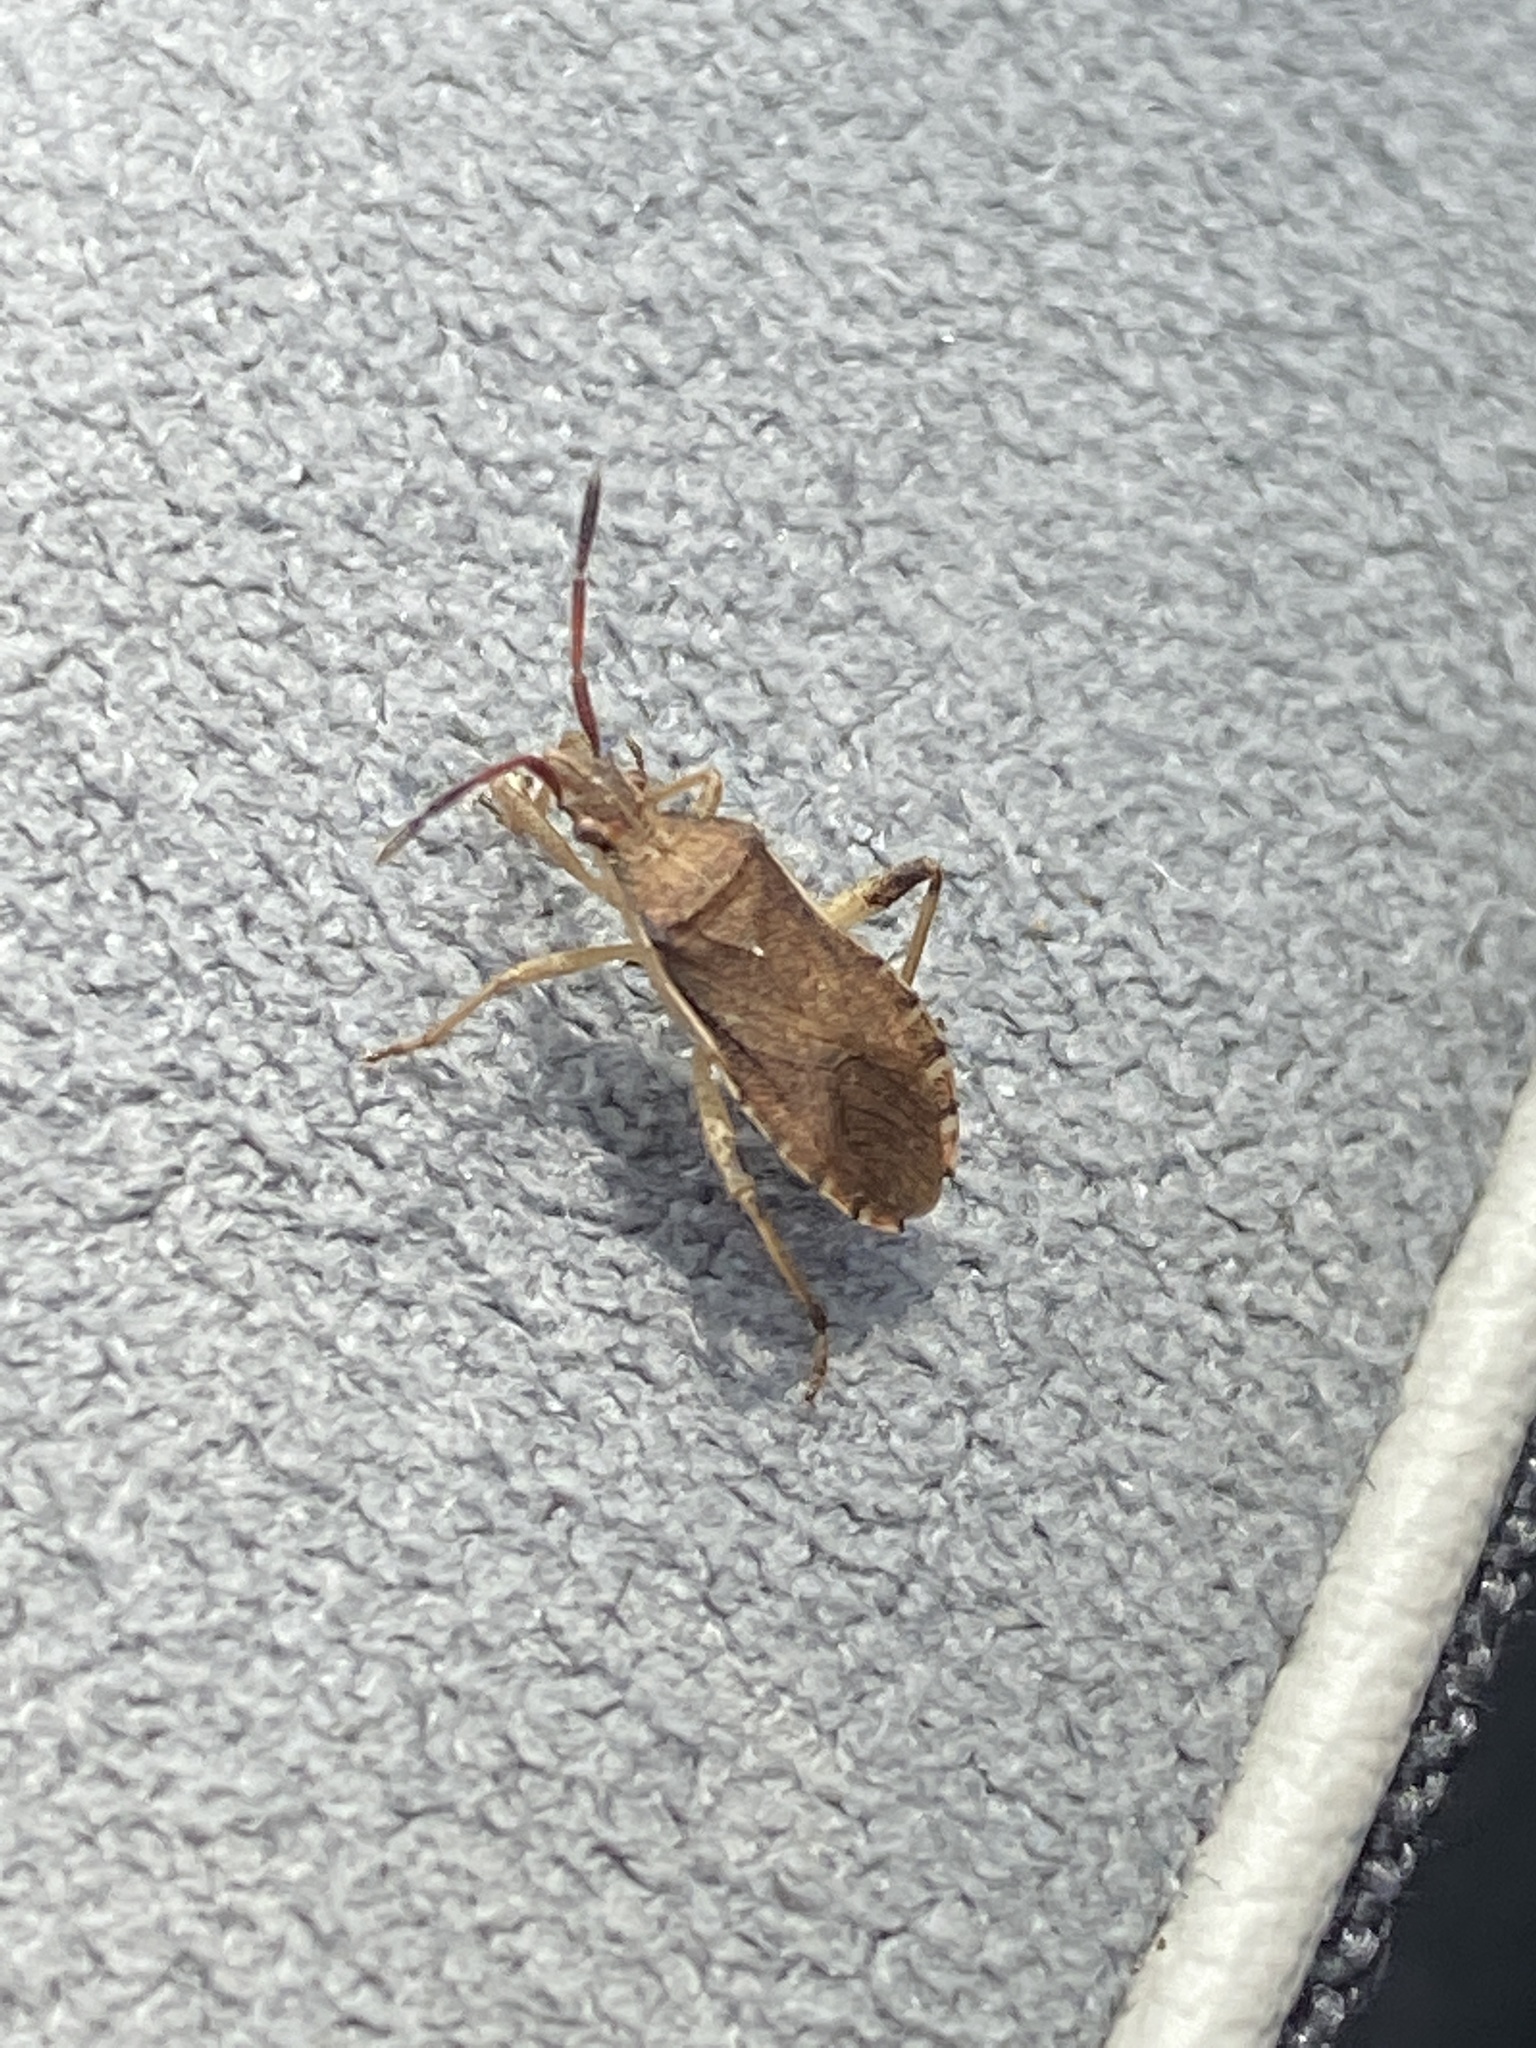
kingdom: Animalia
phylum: Arthropoda
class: Insecta
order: Hemiptera
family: Coreidae
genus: Ceraleptus
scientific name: Ceraleptus lividus
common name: Slender-horned leatherbug
